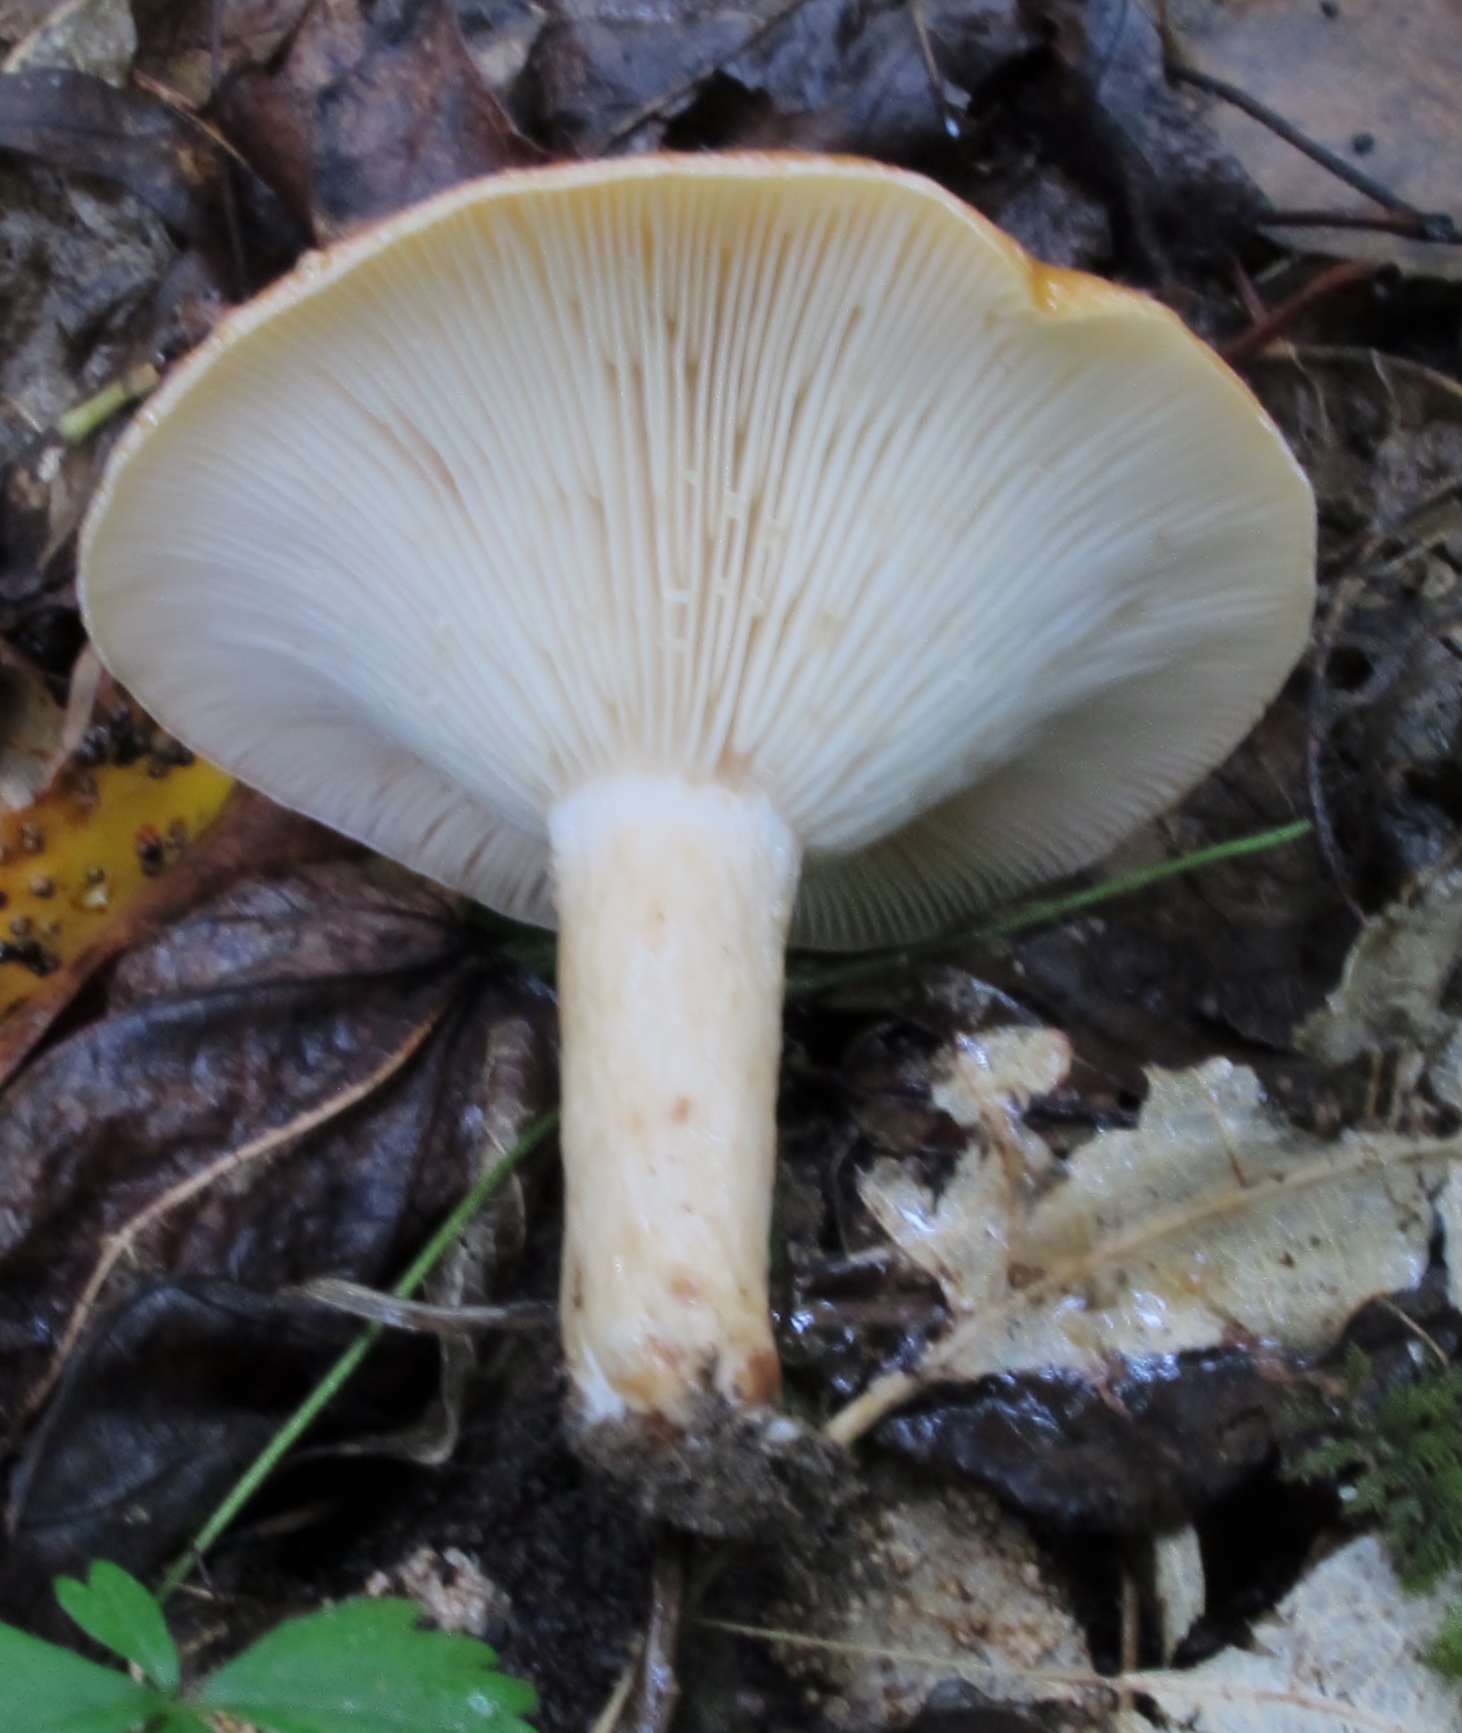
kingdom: Fungi
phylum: Basidiomycota
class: Agaricomycetes
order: Russulales
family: Russulaceae
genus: Lactarius
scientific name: Lactarius croceus
